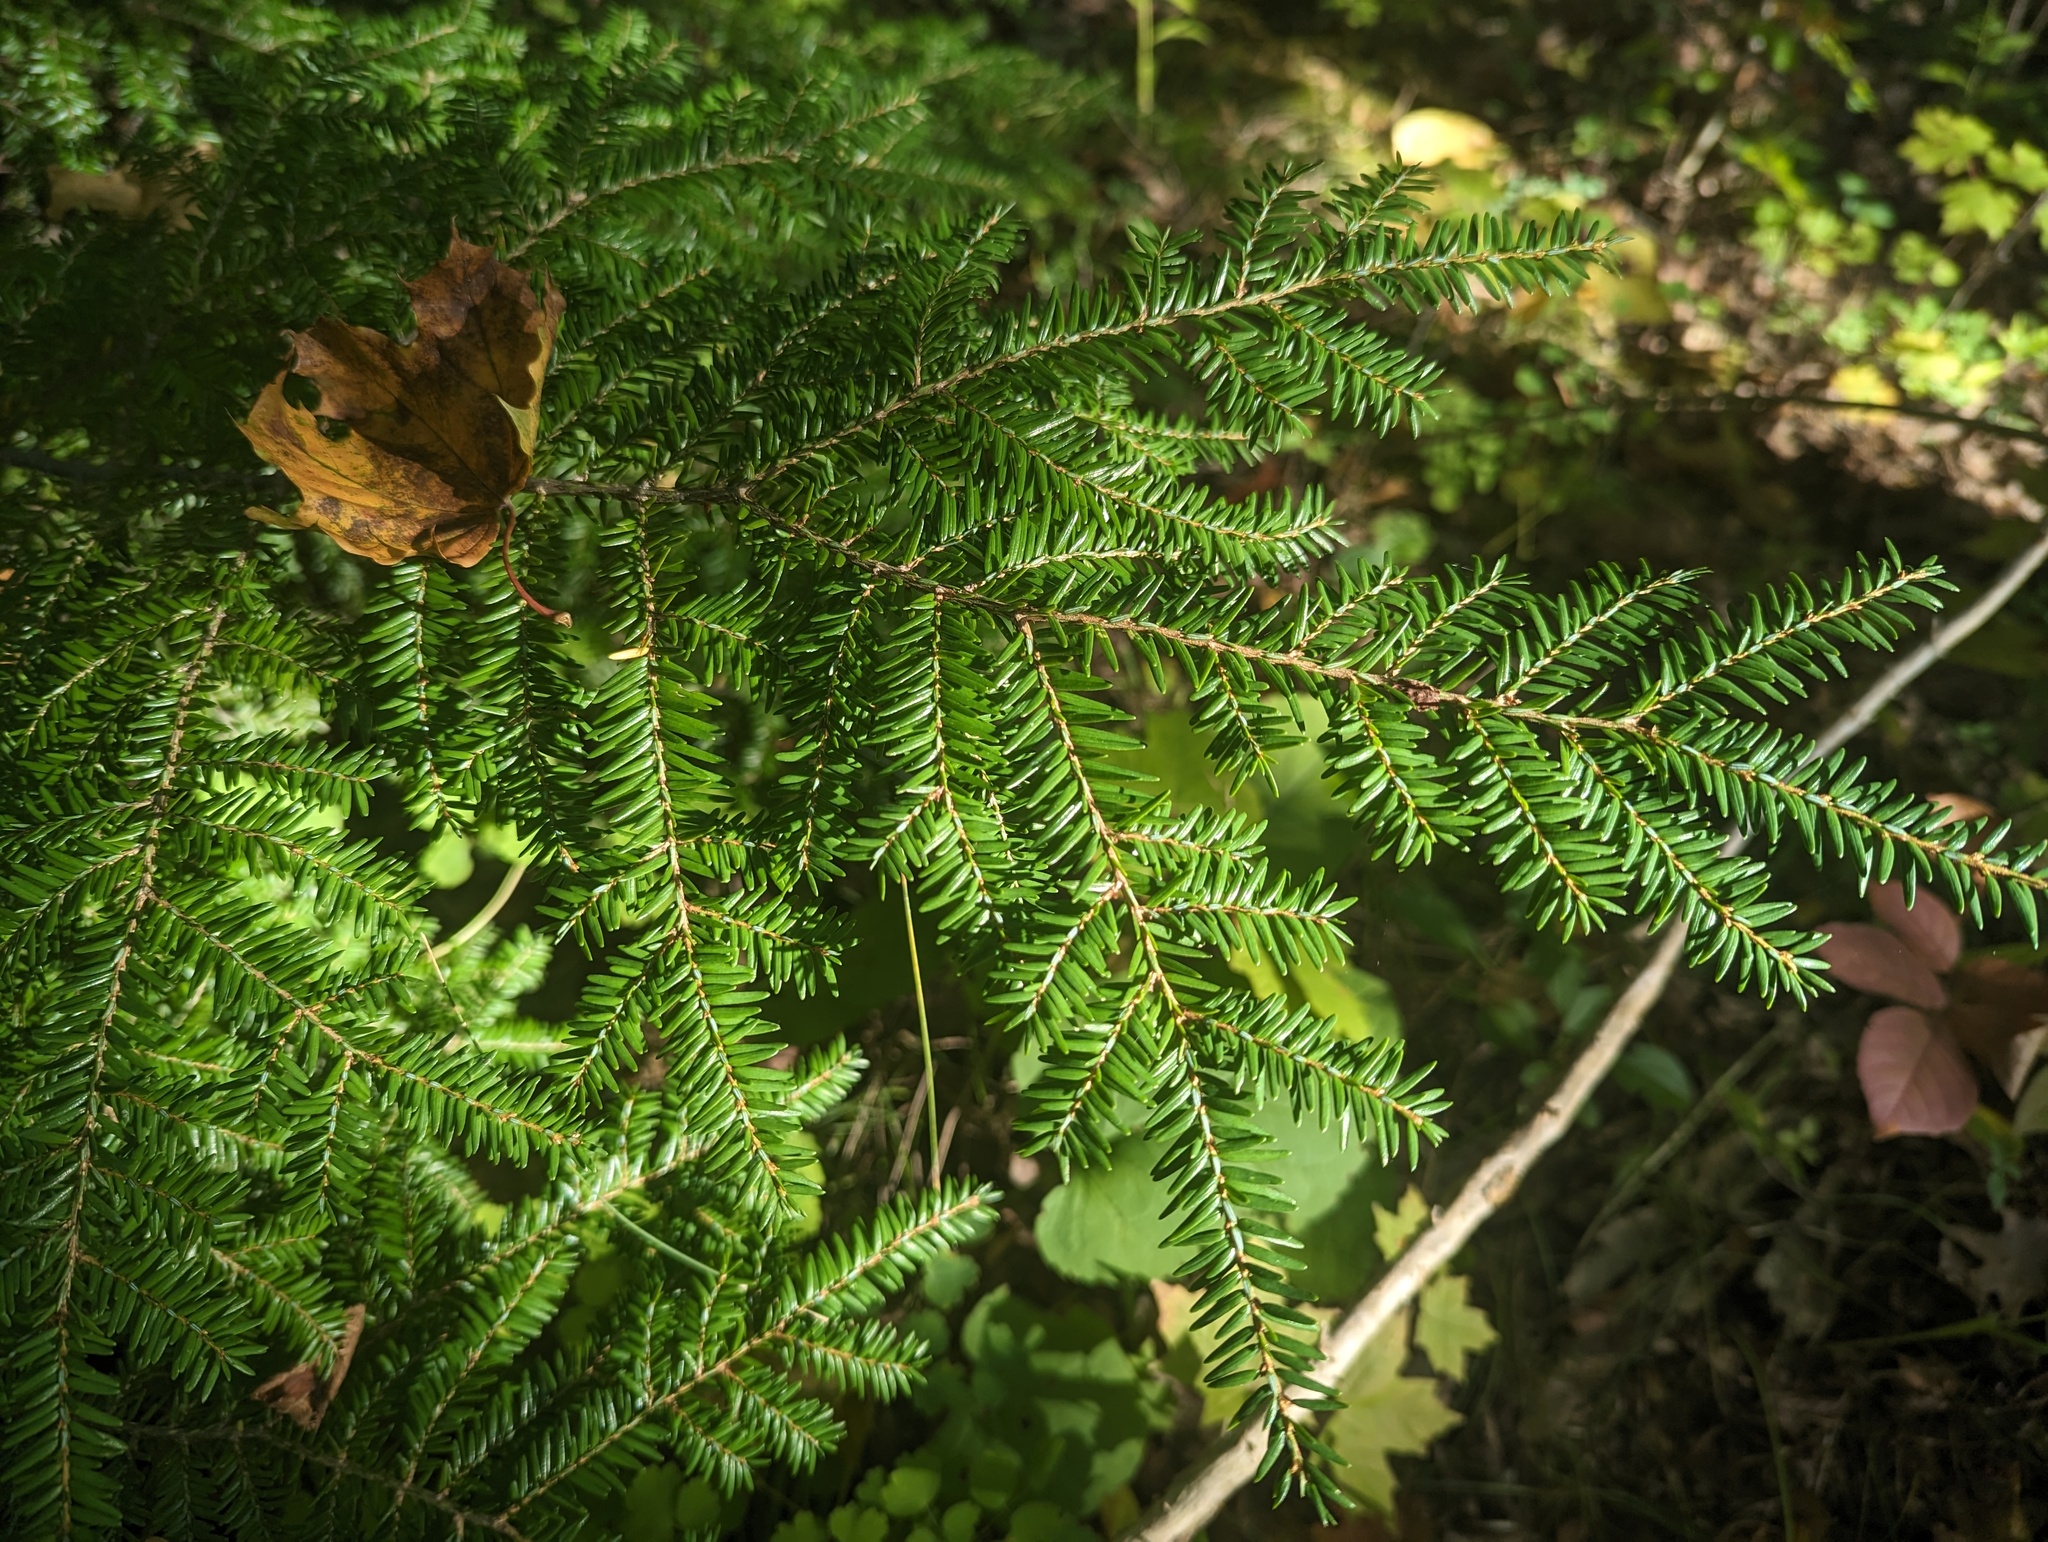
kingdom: Plantae
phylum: Tracheophyta
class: Pinopsida
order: Pinales
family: Pinaceae
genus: Tsuga
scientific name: Tsuga canadensis
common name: Eastern hemlock
